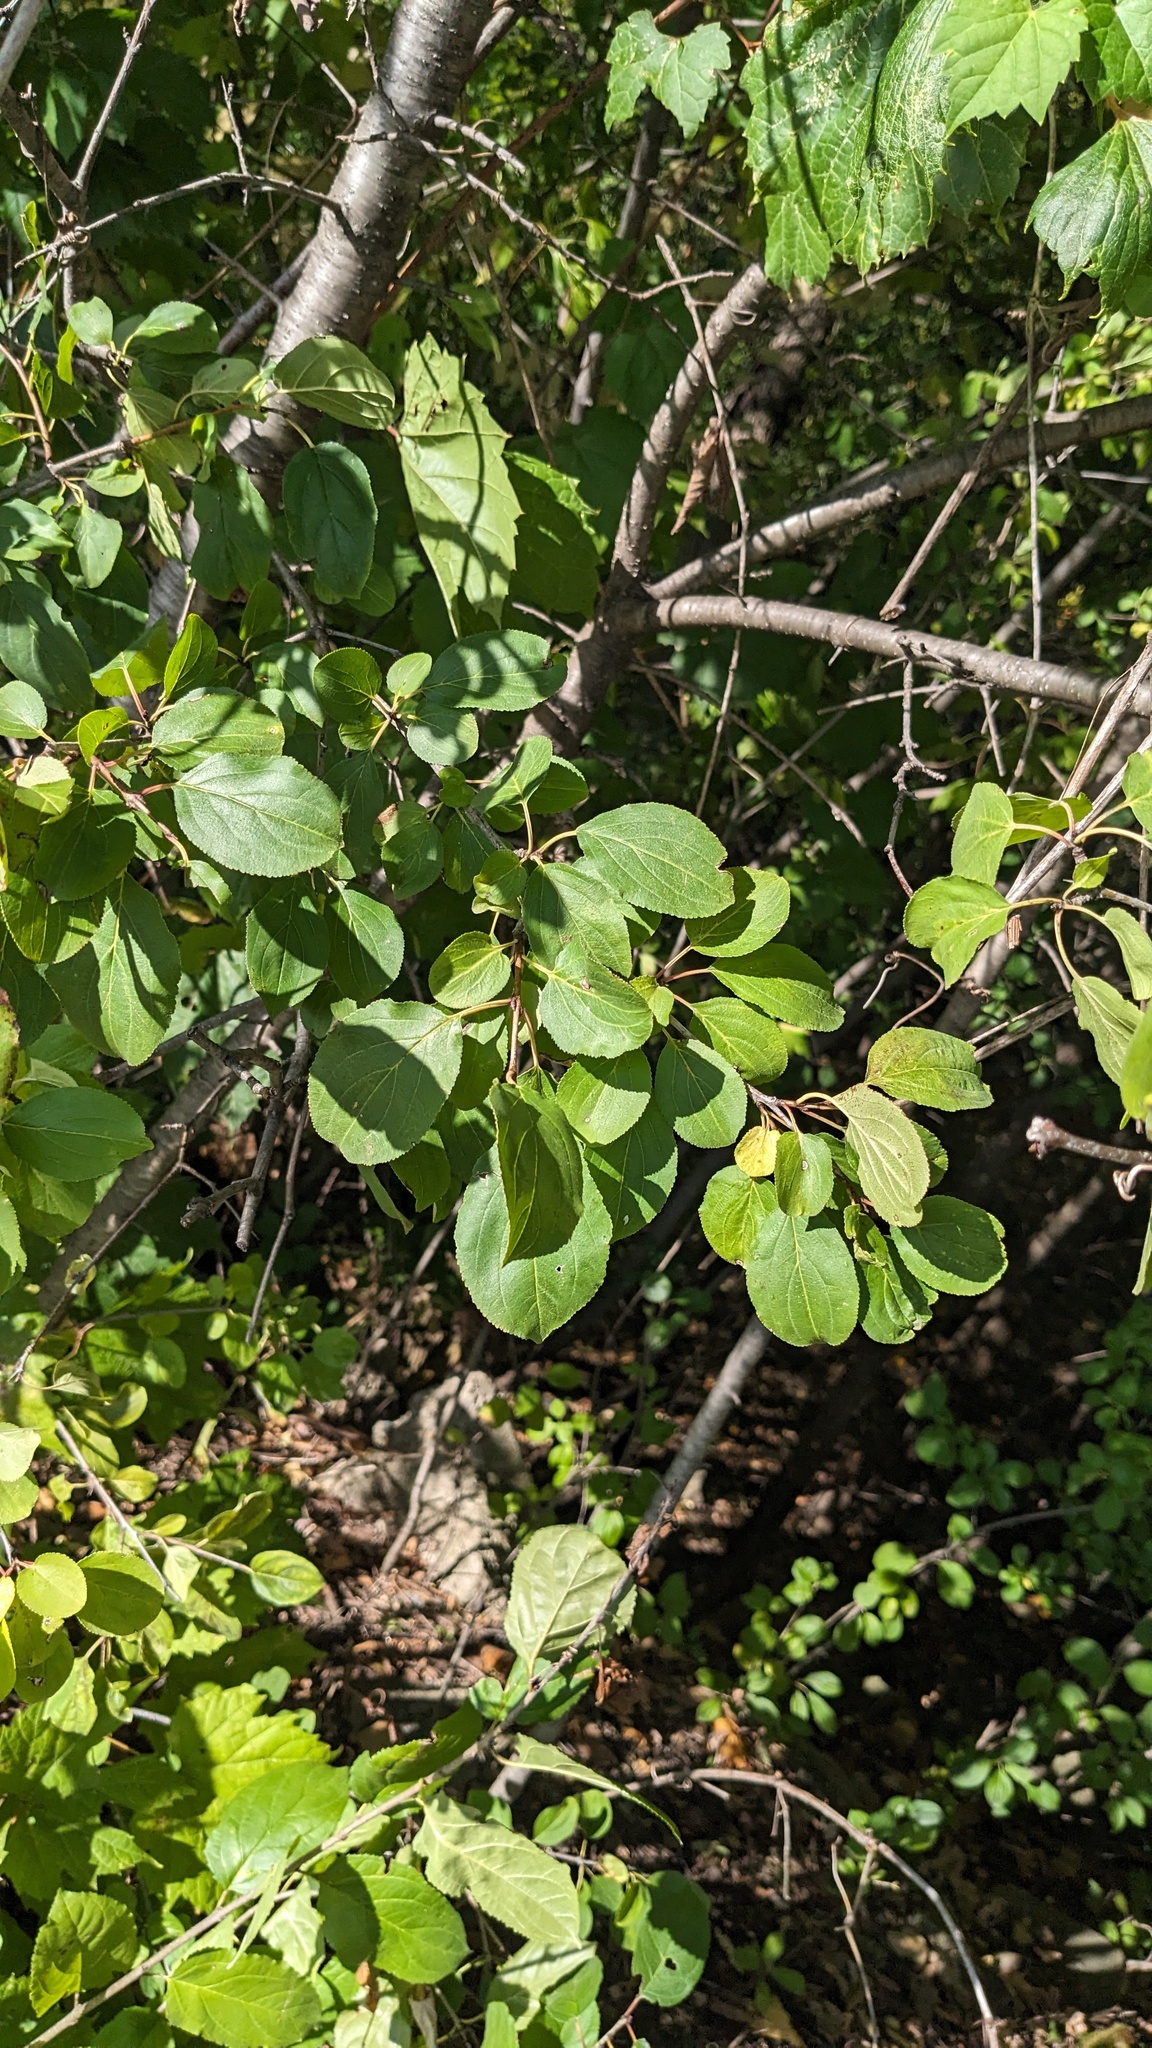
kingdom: Plantae
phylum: Tracheophyta
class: Magnoliopsida
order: Rosales
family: Rhamnaceae
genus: Rhamnus
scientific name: Rhamnus cathartica
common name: Common buckthorn
